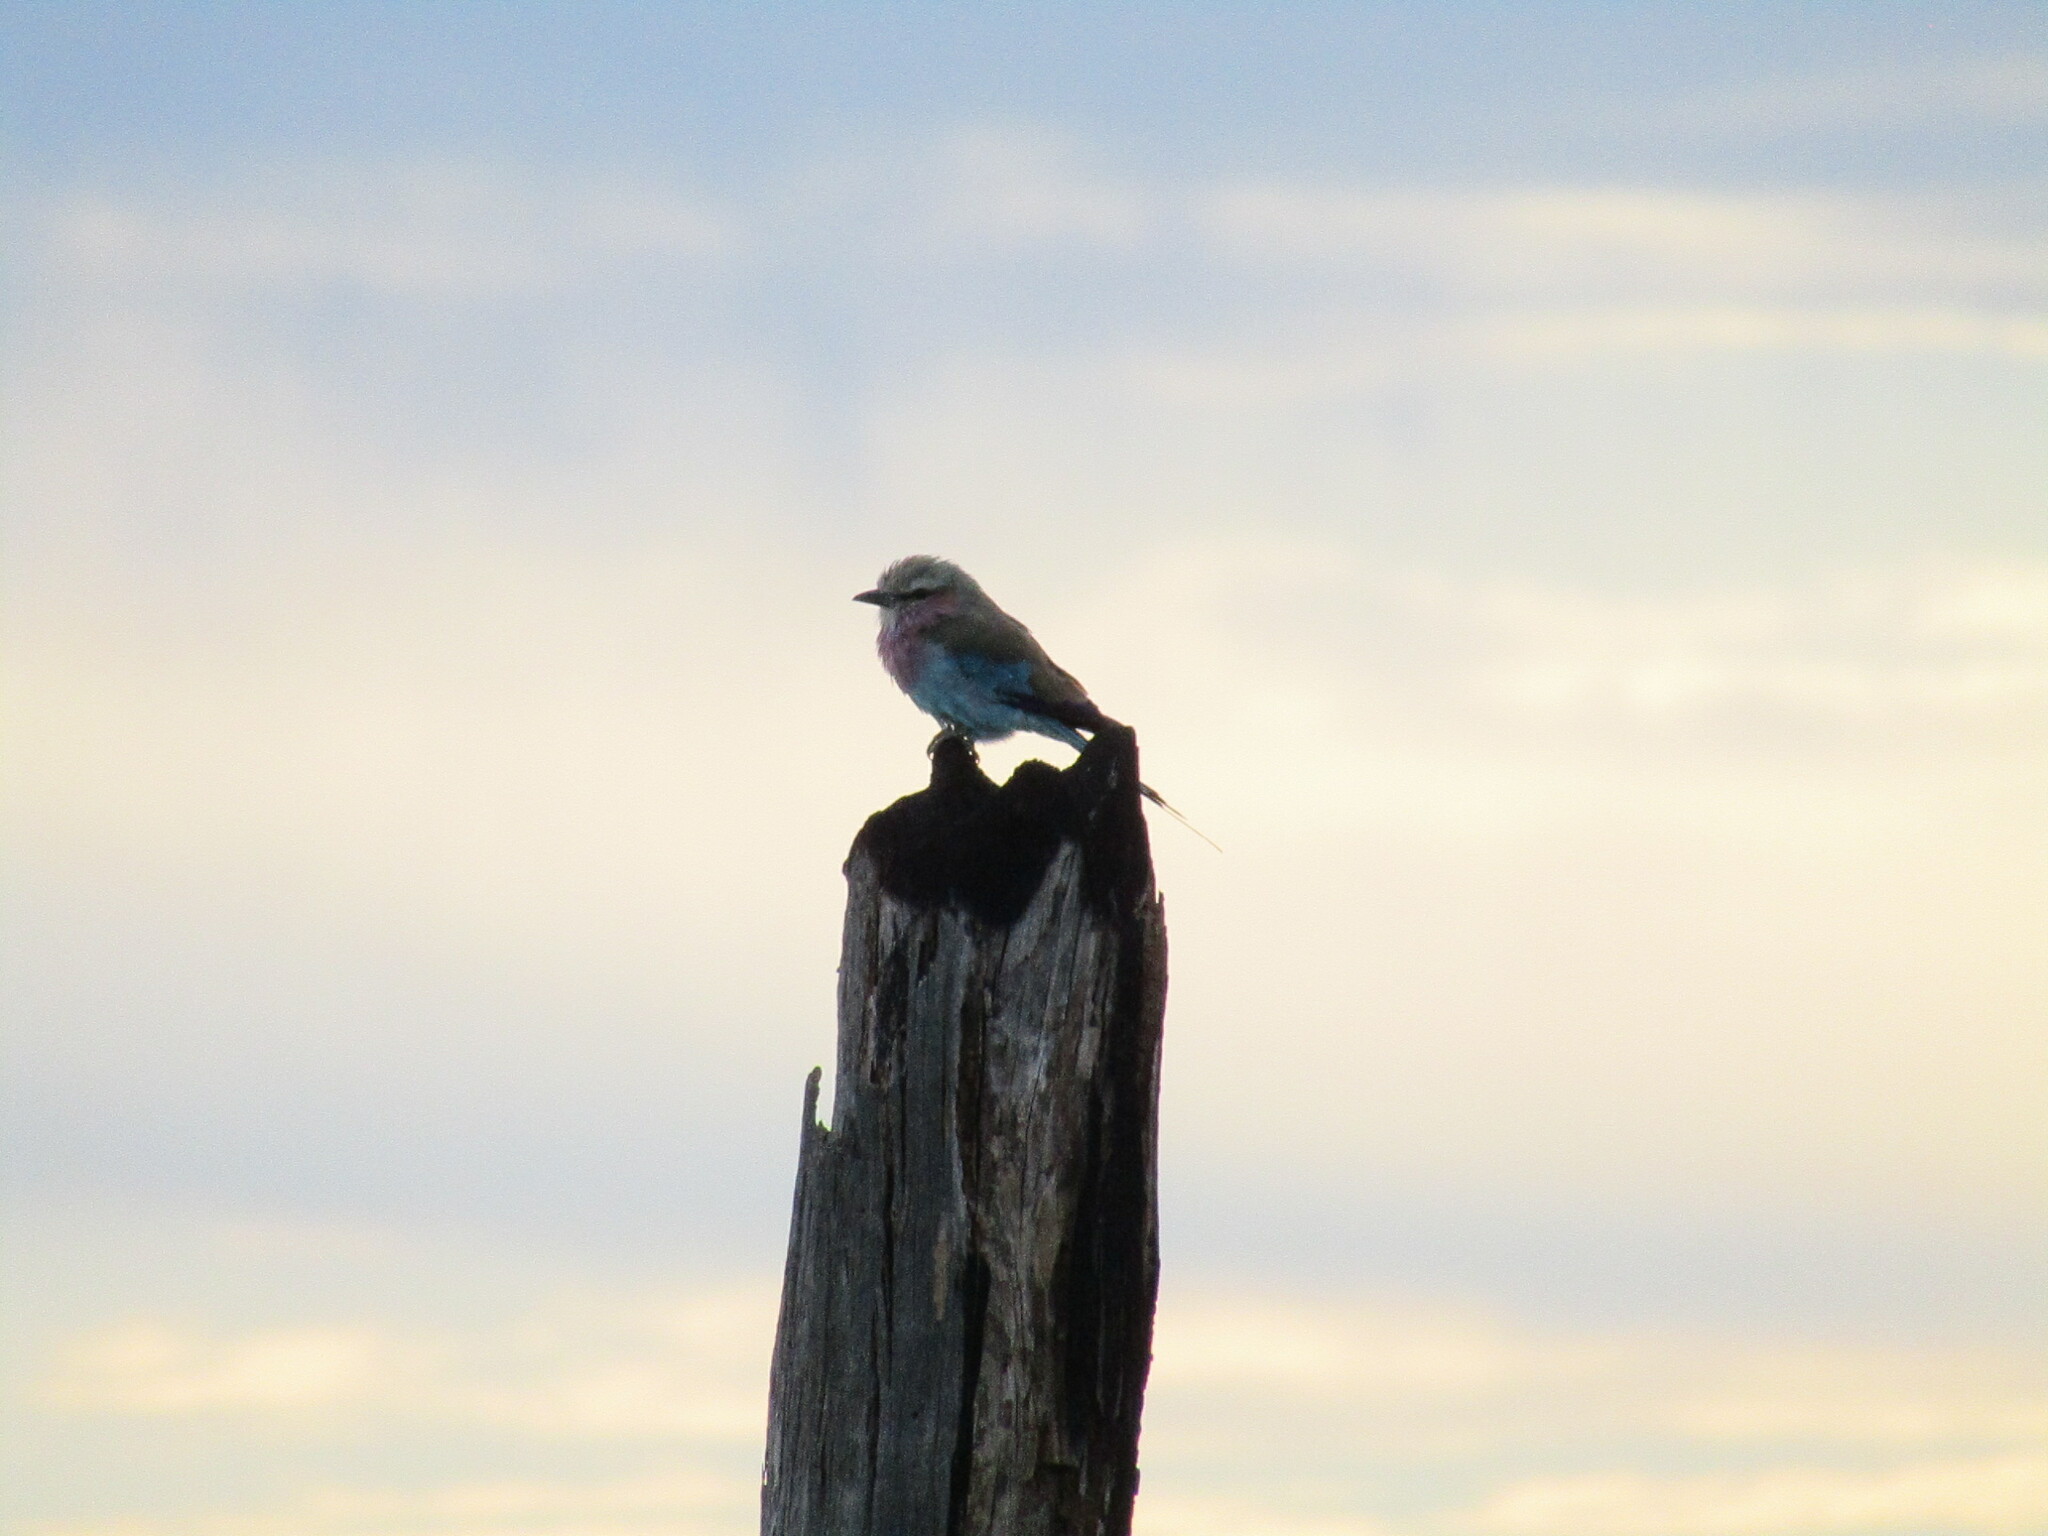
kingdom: Animalia
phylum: Chordata
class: Aves
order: Coraciiformes
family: Coraciidae
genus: Coracias
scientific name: Coracias caudatus
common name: Lilac-breasted roller
